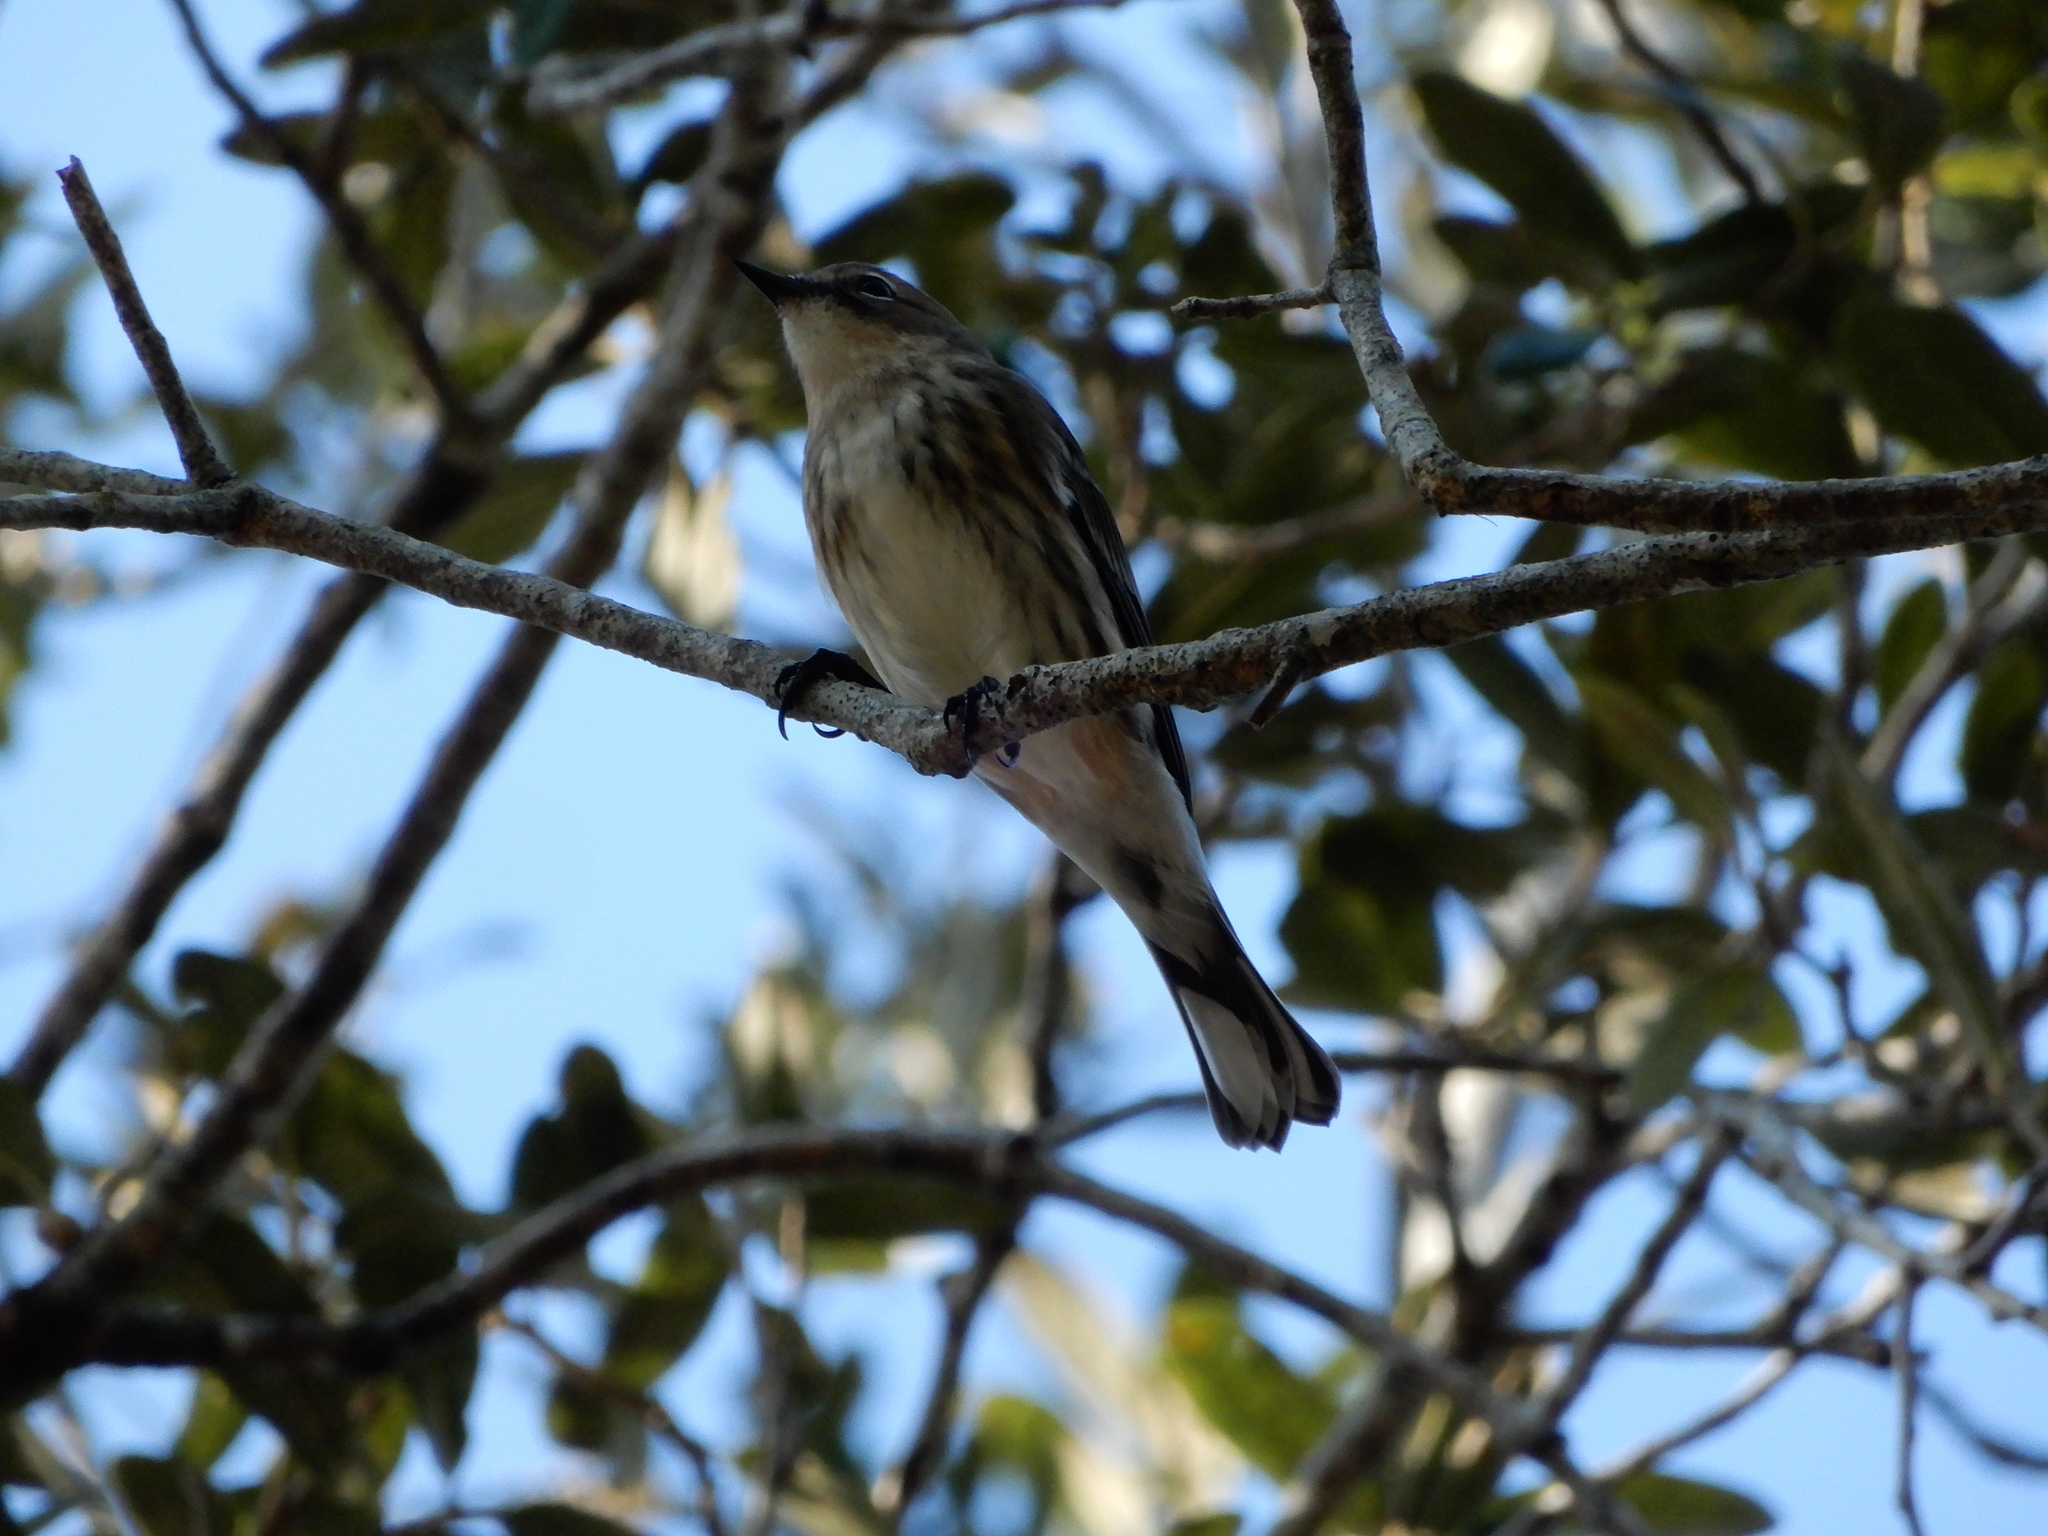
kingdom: Animalia
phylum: Chordata
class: Aves
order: Passeriformes
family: Parulidae
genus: Setophaga
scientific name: Setophaga coronata
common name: Myrtle warbler
